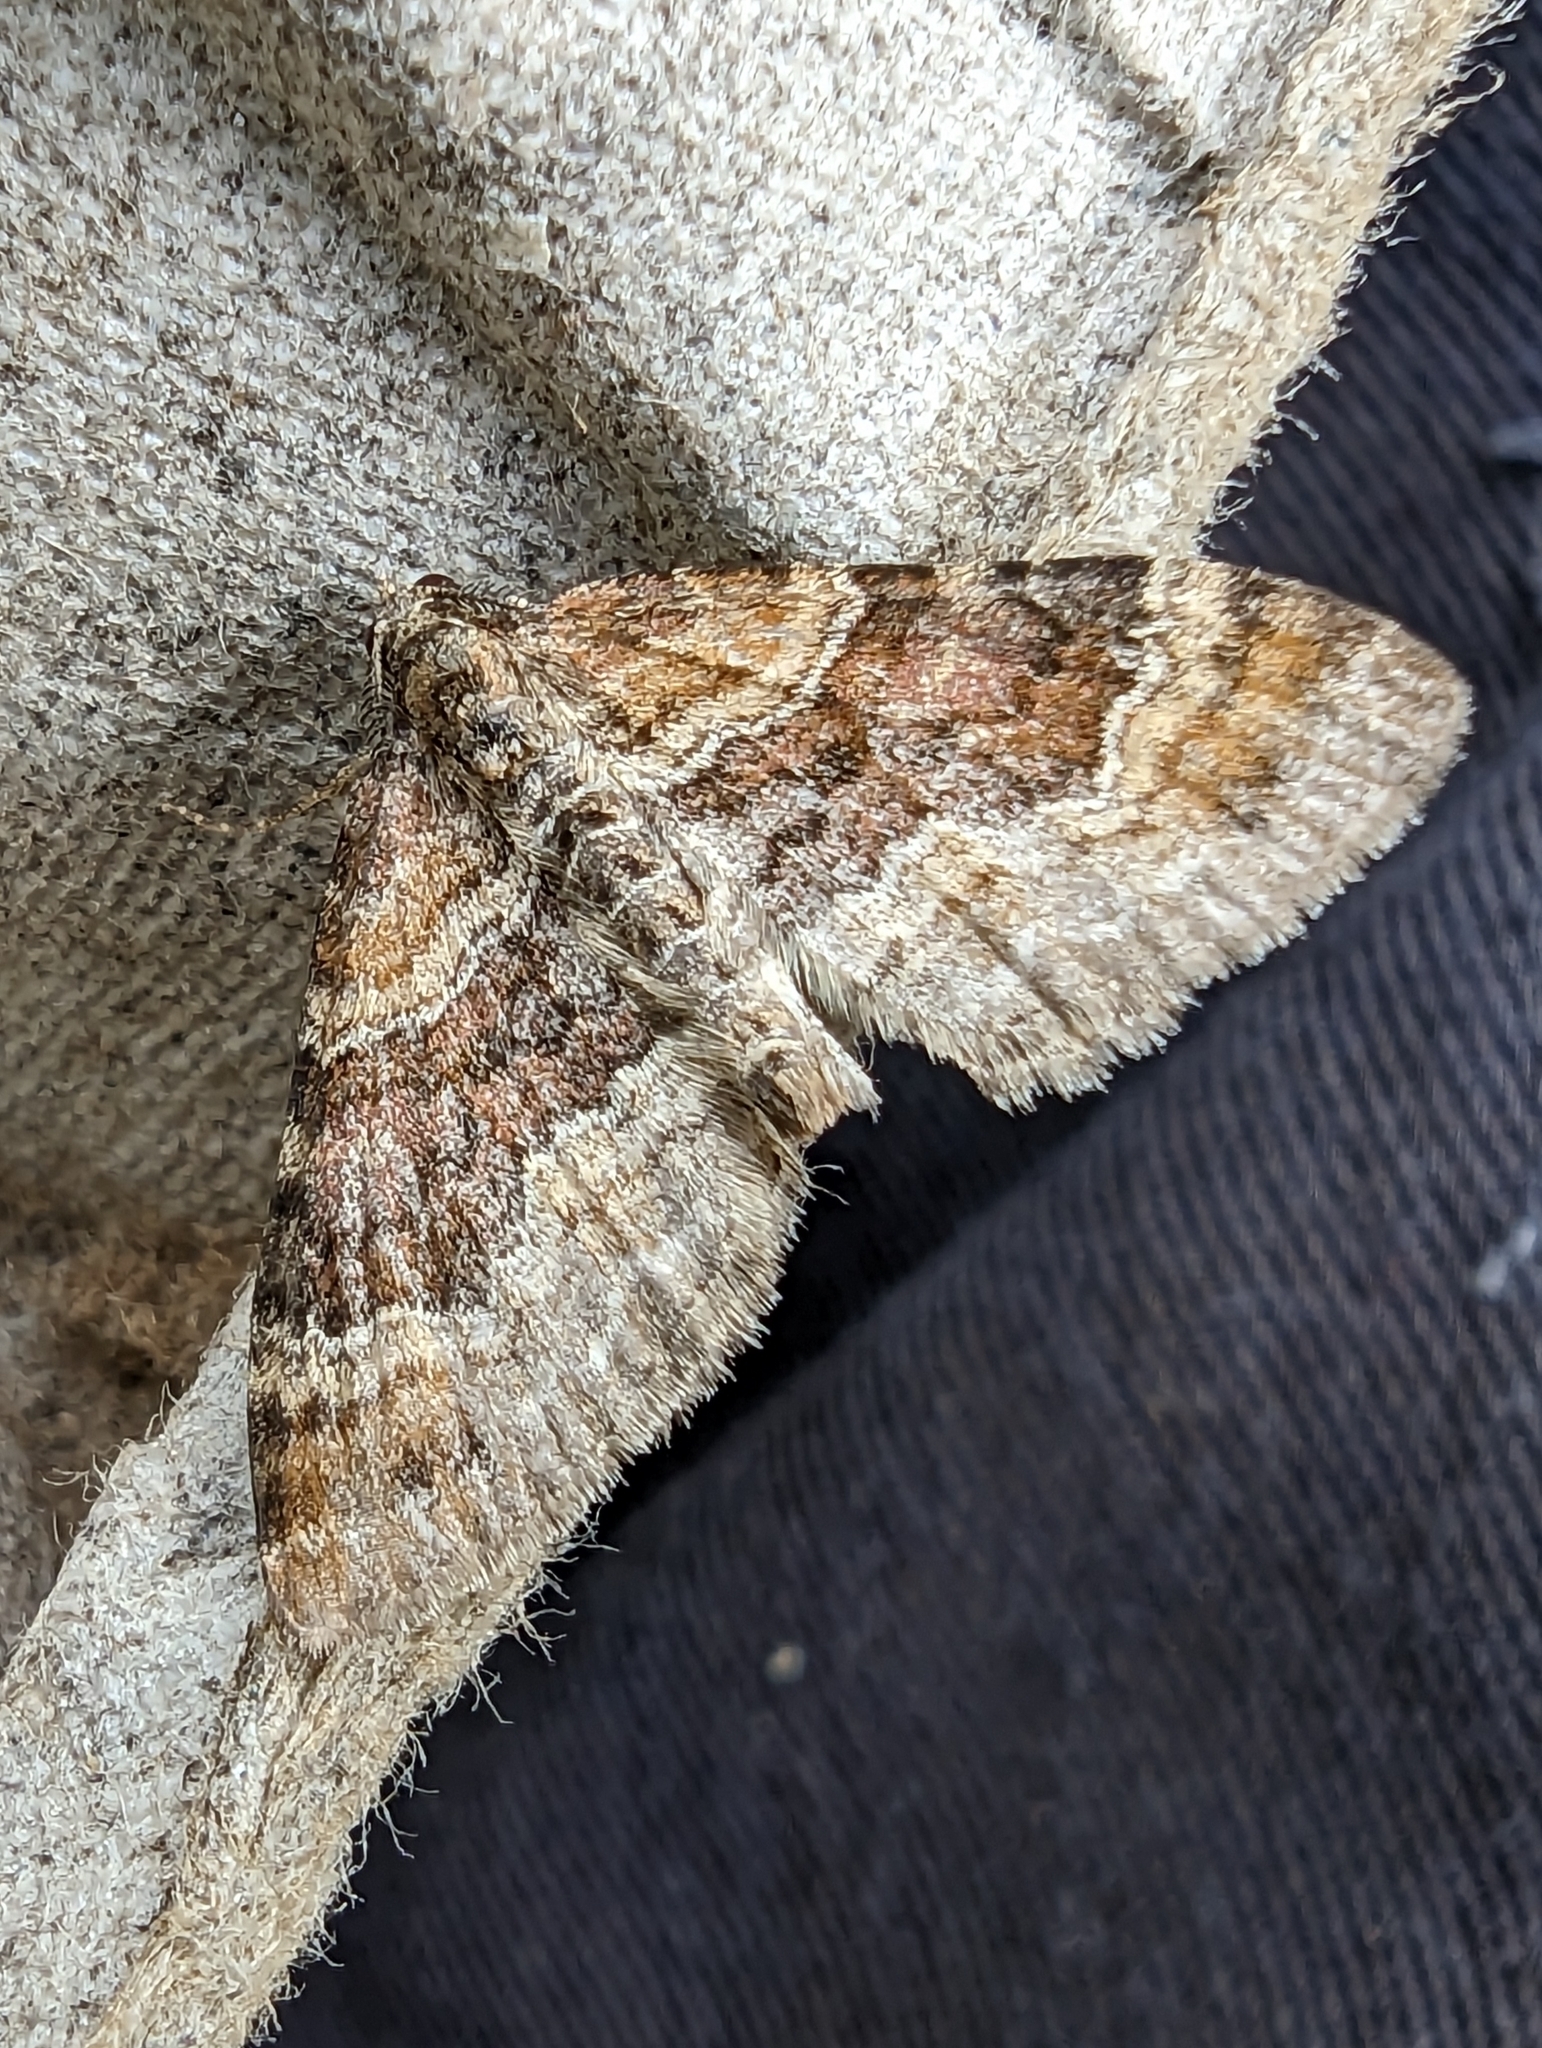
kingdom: Animalia
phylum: Arthropoda
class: Insecta
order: Lepidoptera
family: Geometridae
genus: Xanthorhoe
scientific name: Xanthorhoe spadicearia
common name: Red twin-spot carpet
